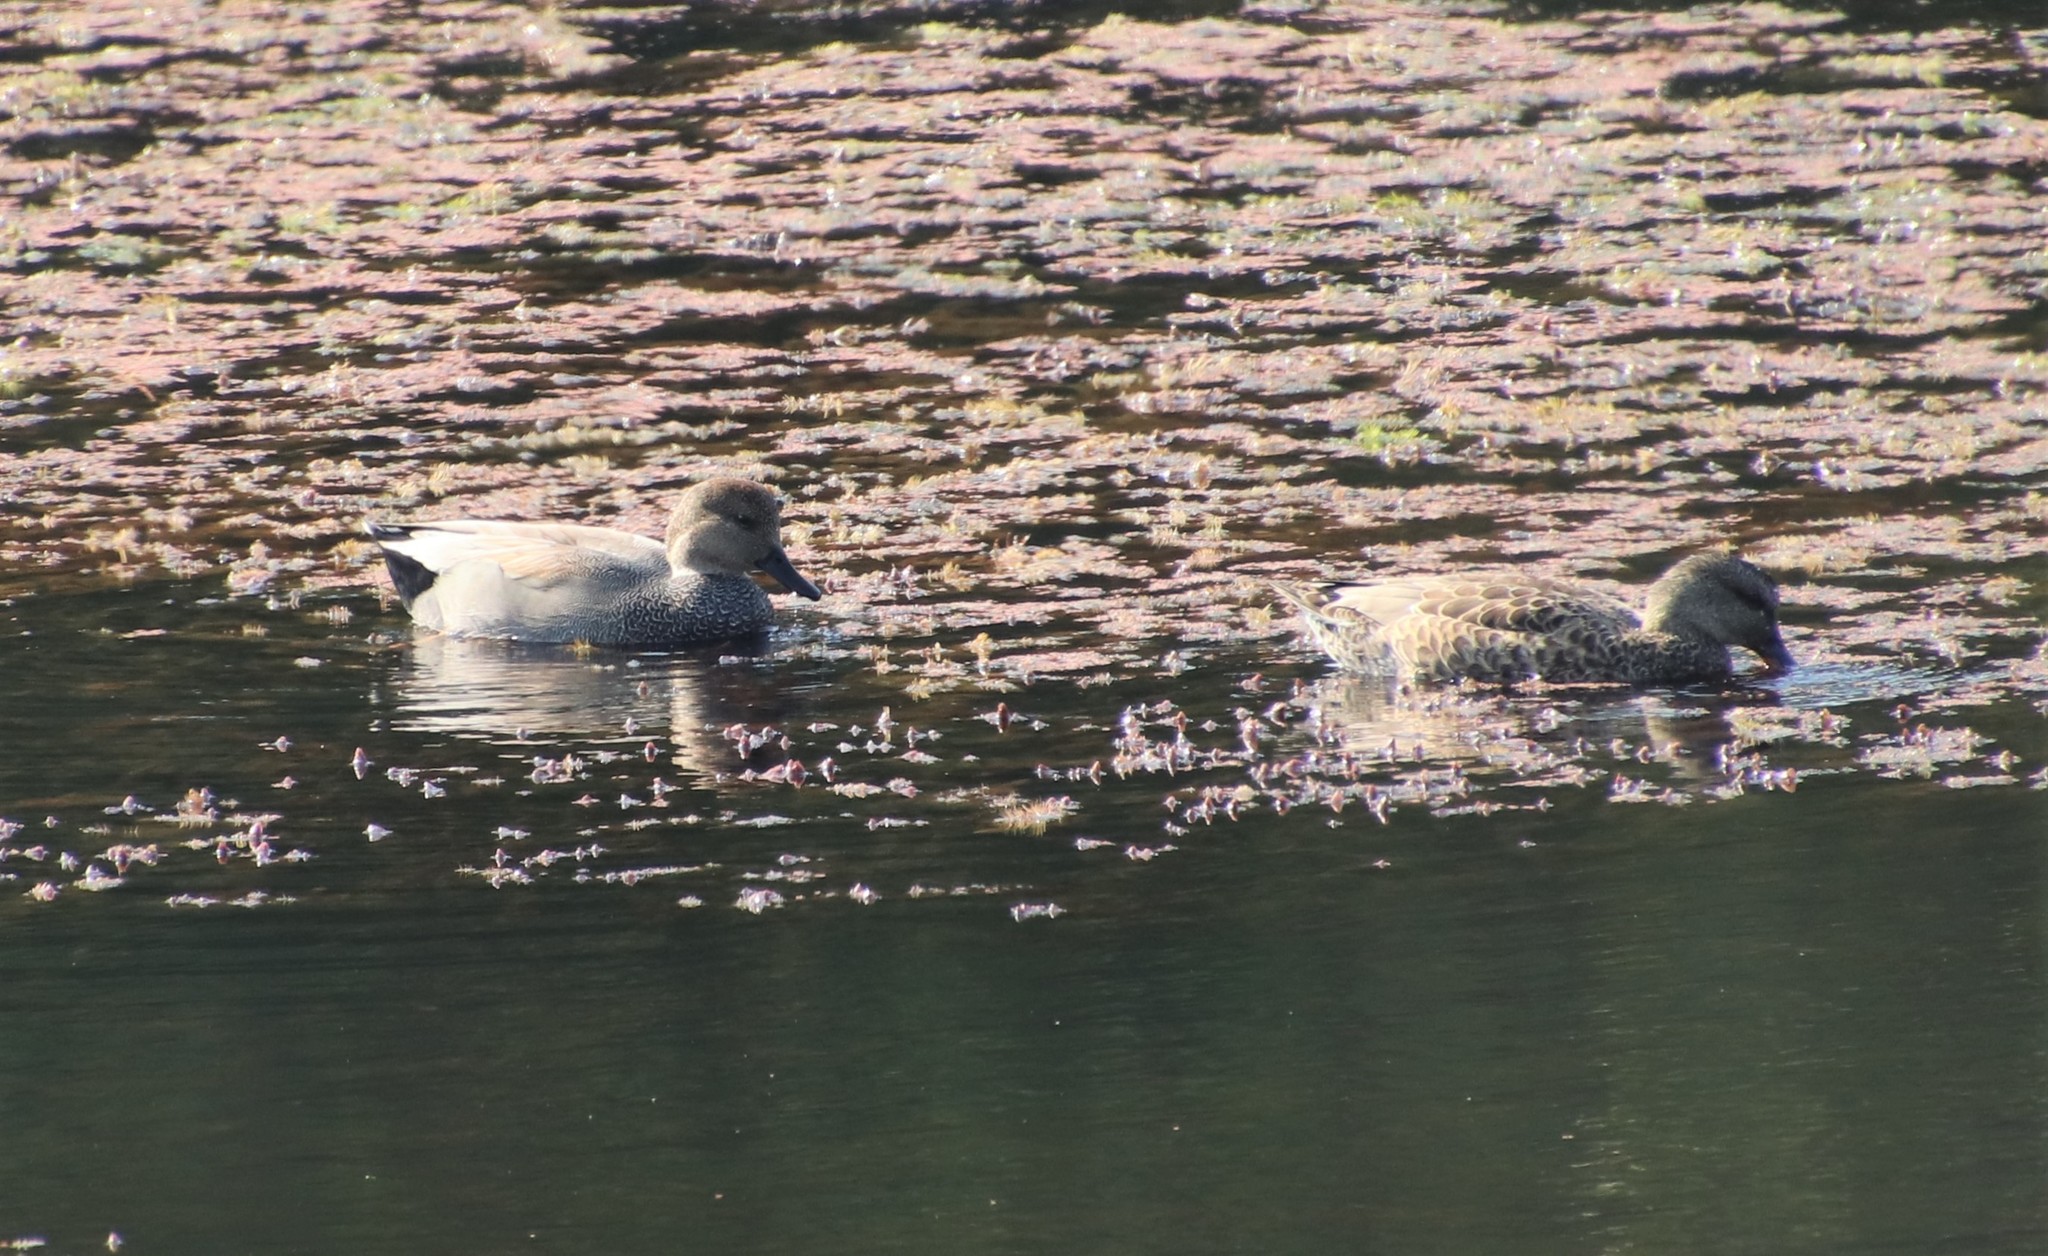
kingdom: Animalia
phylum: Chordata
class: Aves
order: Anseriformes
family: Anatidae
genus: Mareca
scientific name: Mareca strepera
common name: Gadwall
